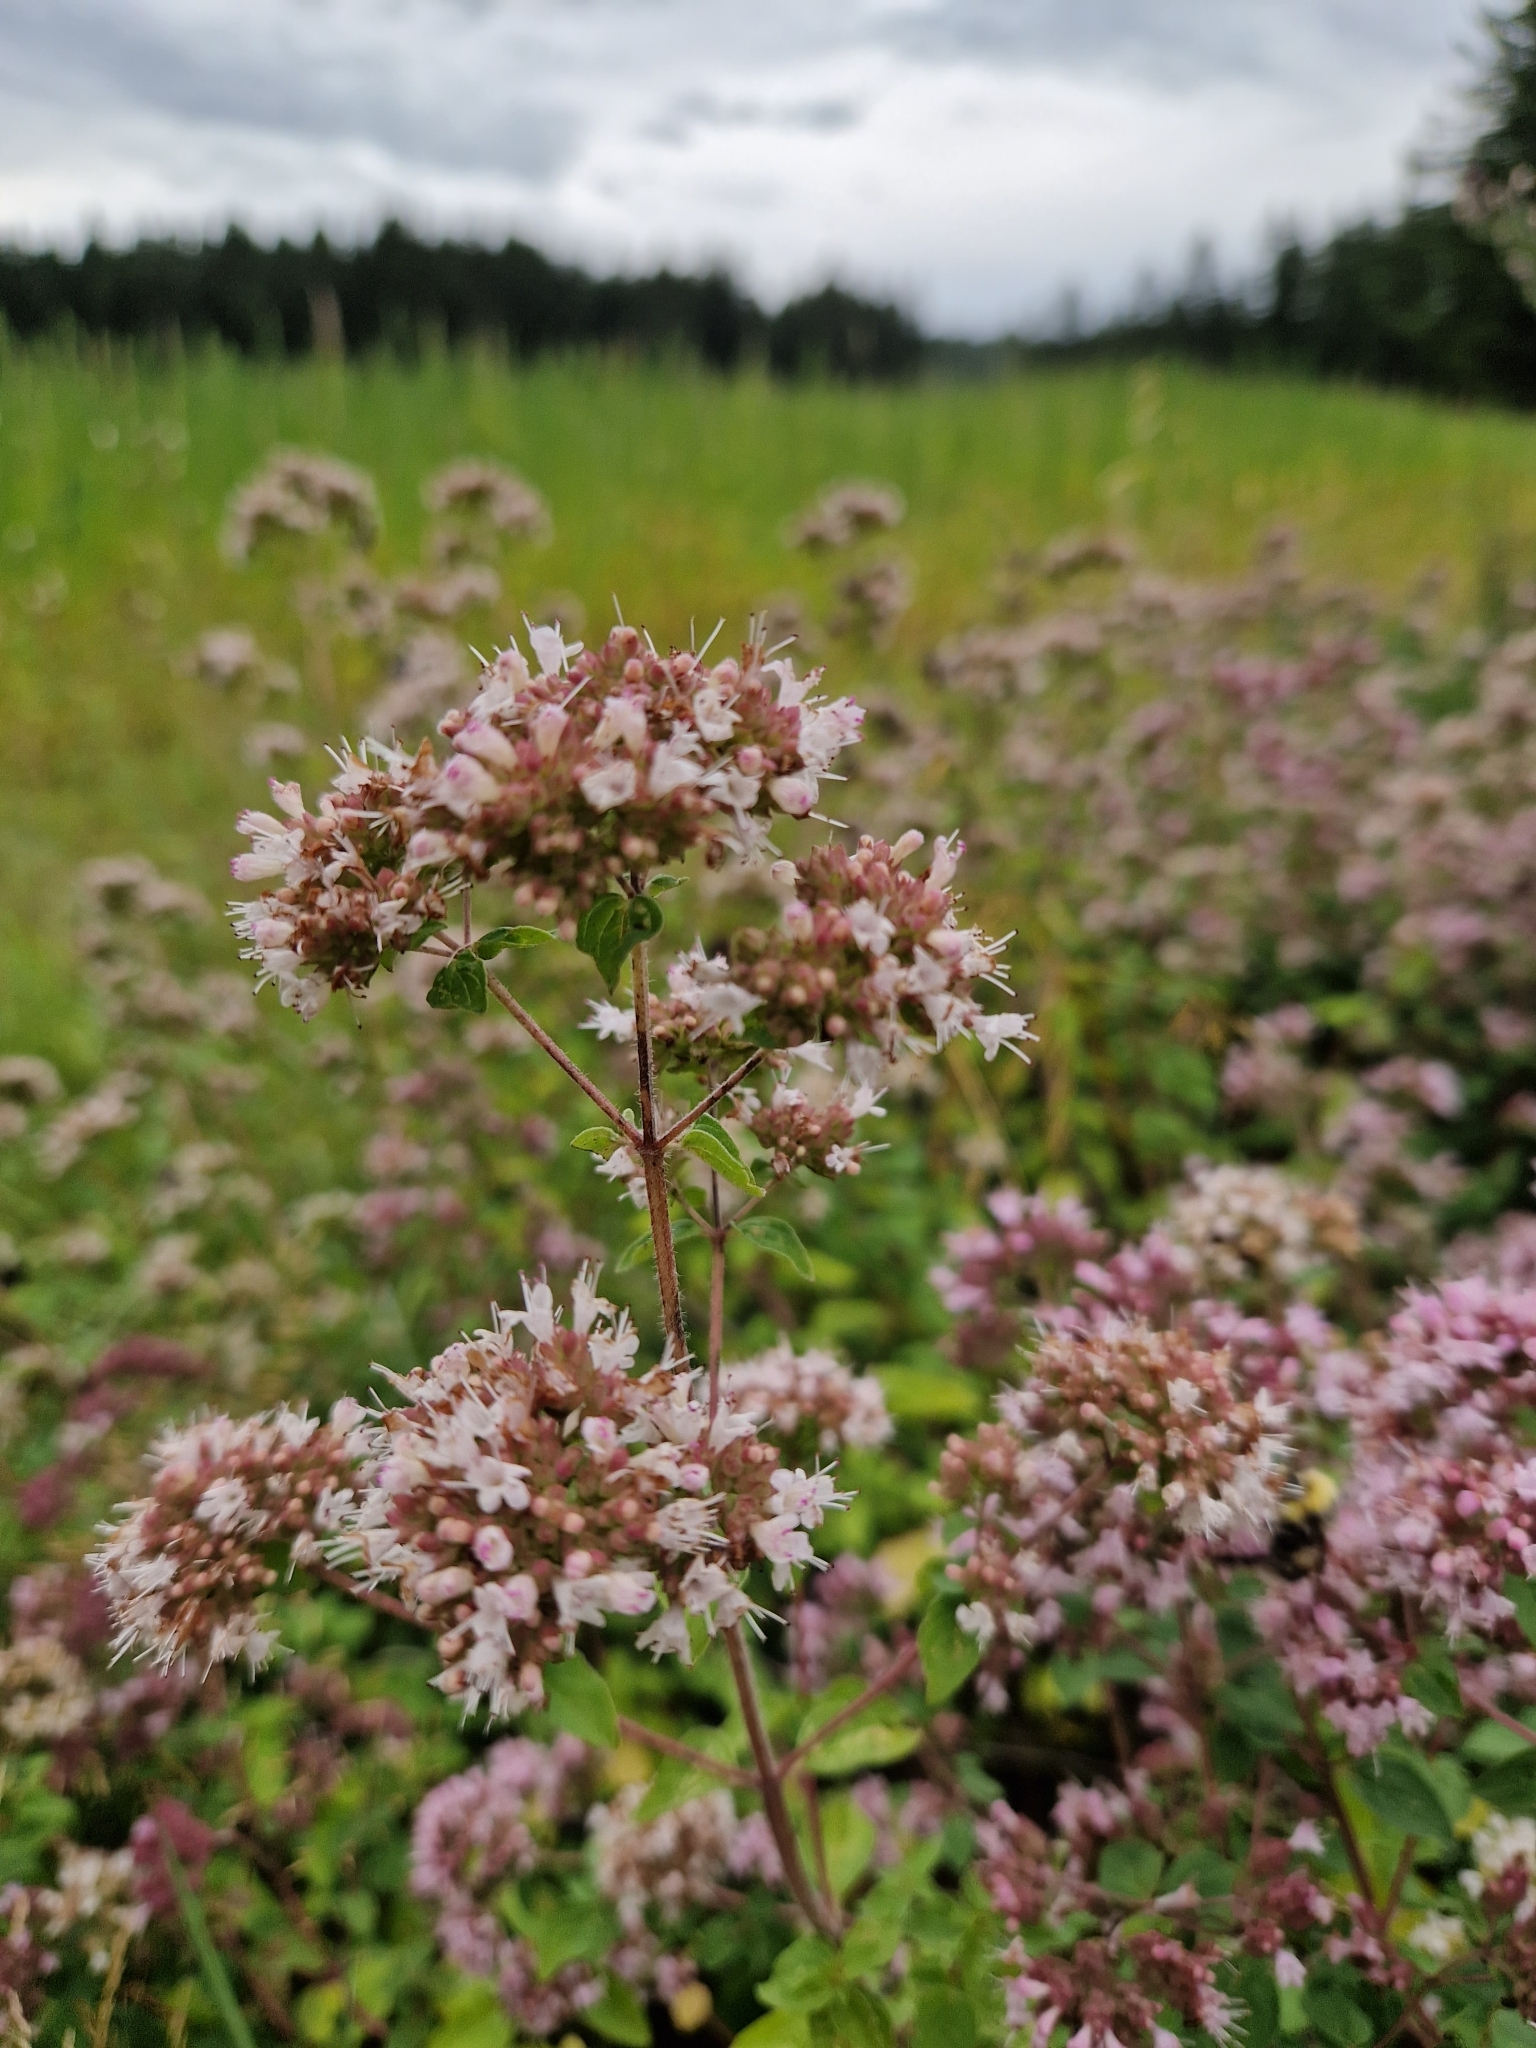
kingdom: Plantae
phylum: Tracheophyta
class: Magnoliopsida
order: Lamiales
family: Lamiaceae
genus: Origanum
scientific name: Origanum vulgare
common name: Wild marjoram
